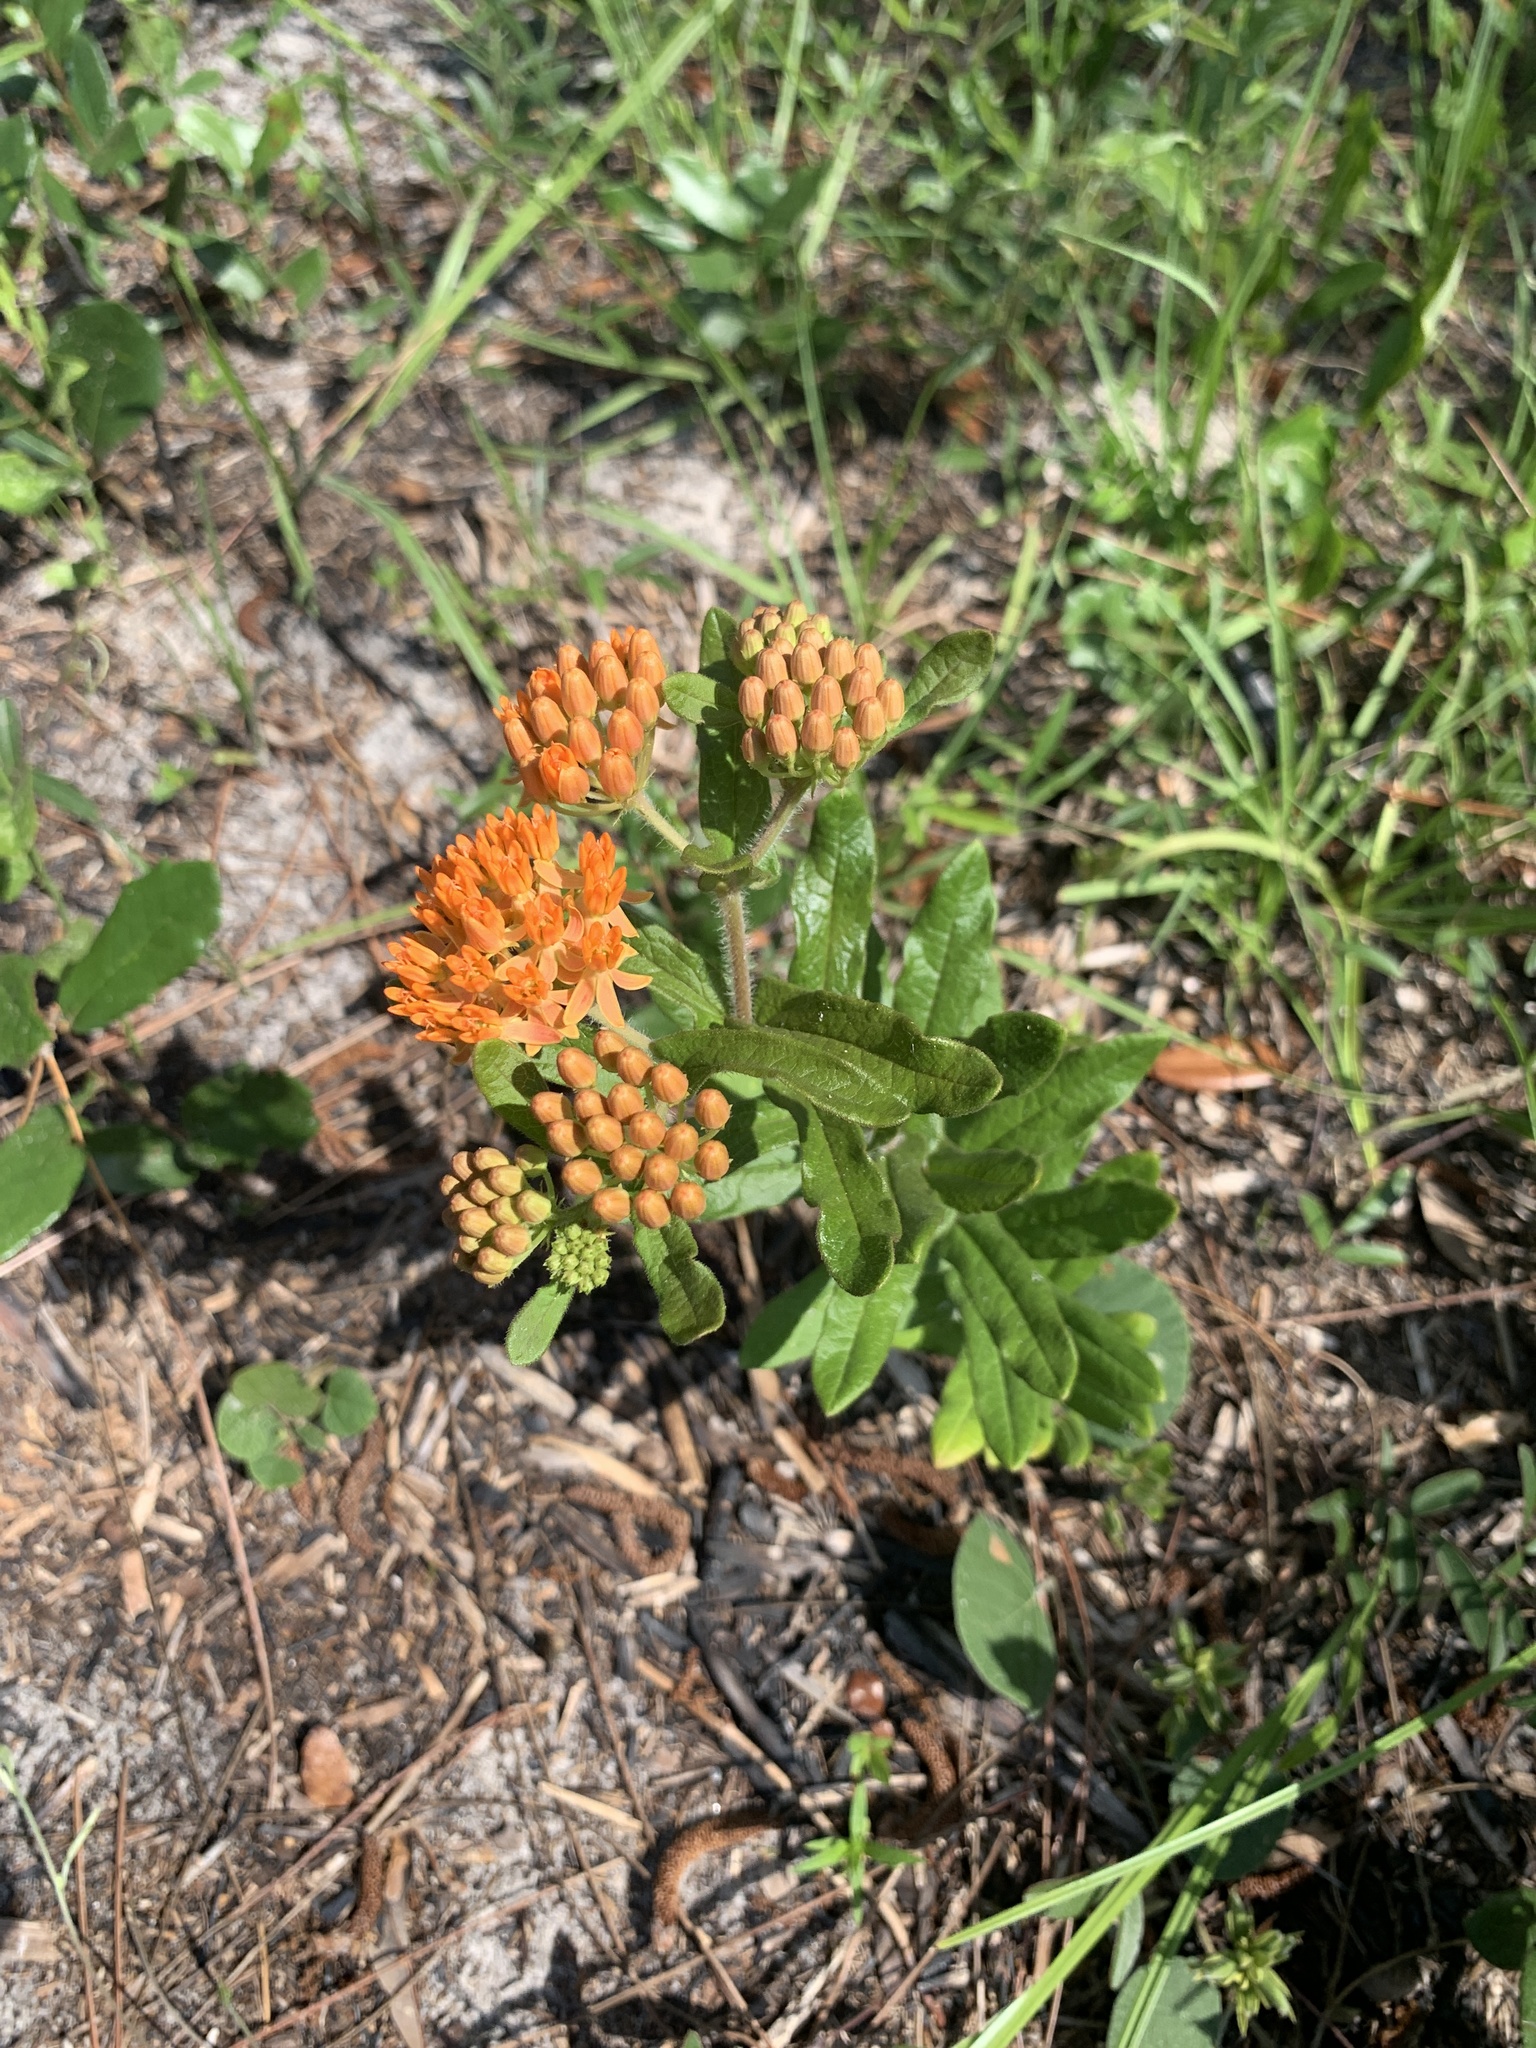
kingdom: Plantae
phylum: Tracheophyta
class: Magnoliopsida
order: Gentianales
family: Apocynaceae
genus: Asclepias
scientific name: Asclepias tuberosa
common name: Butterfly milkweed
